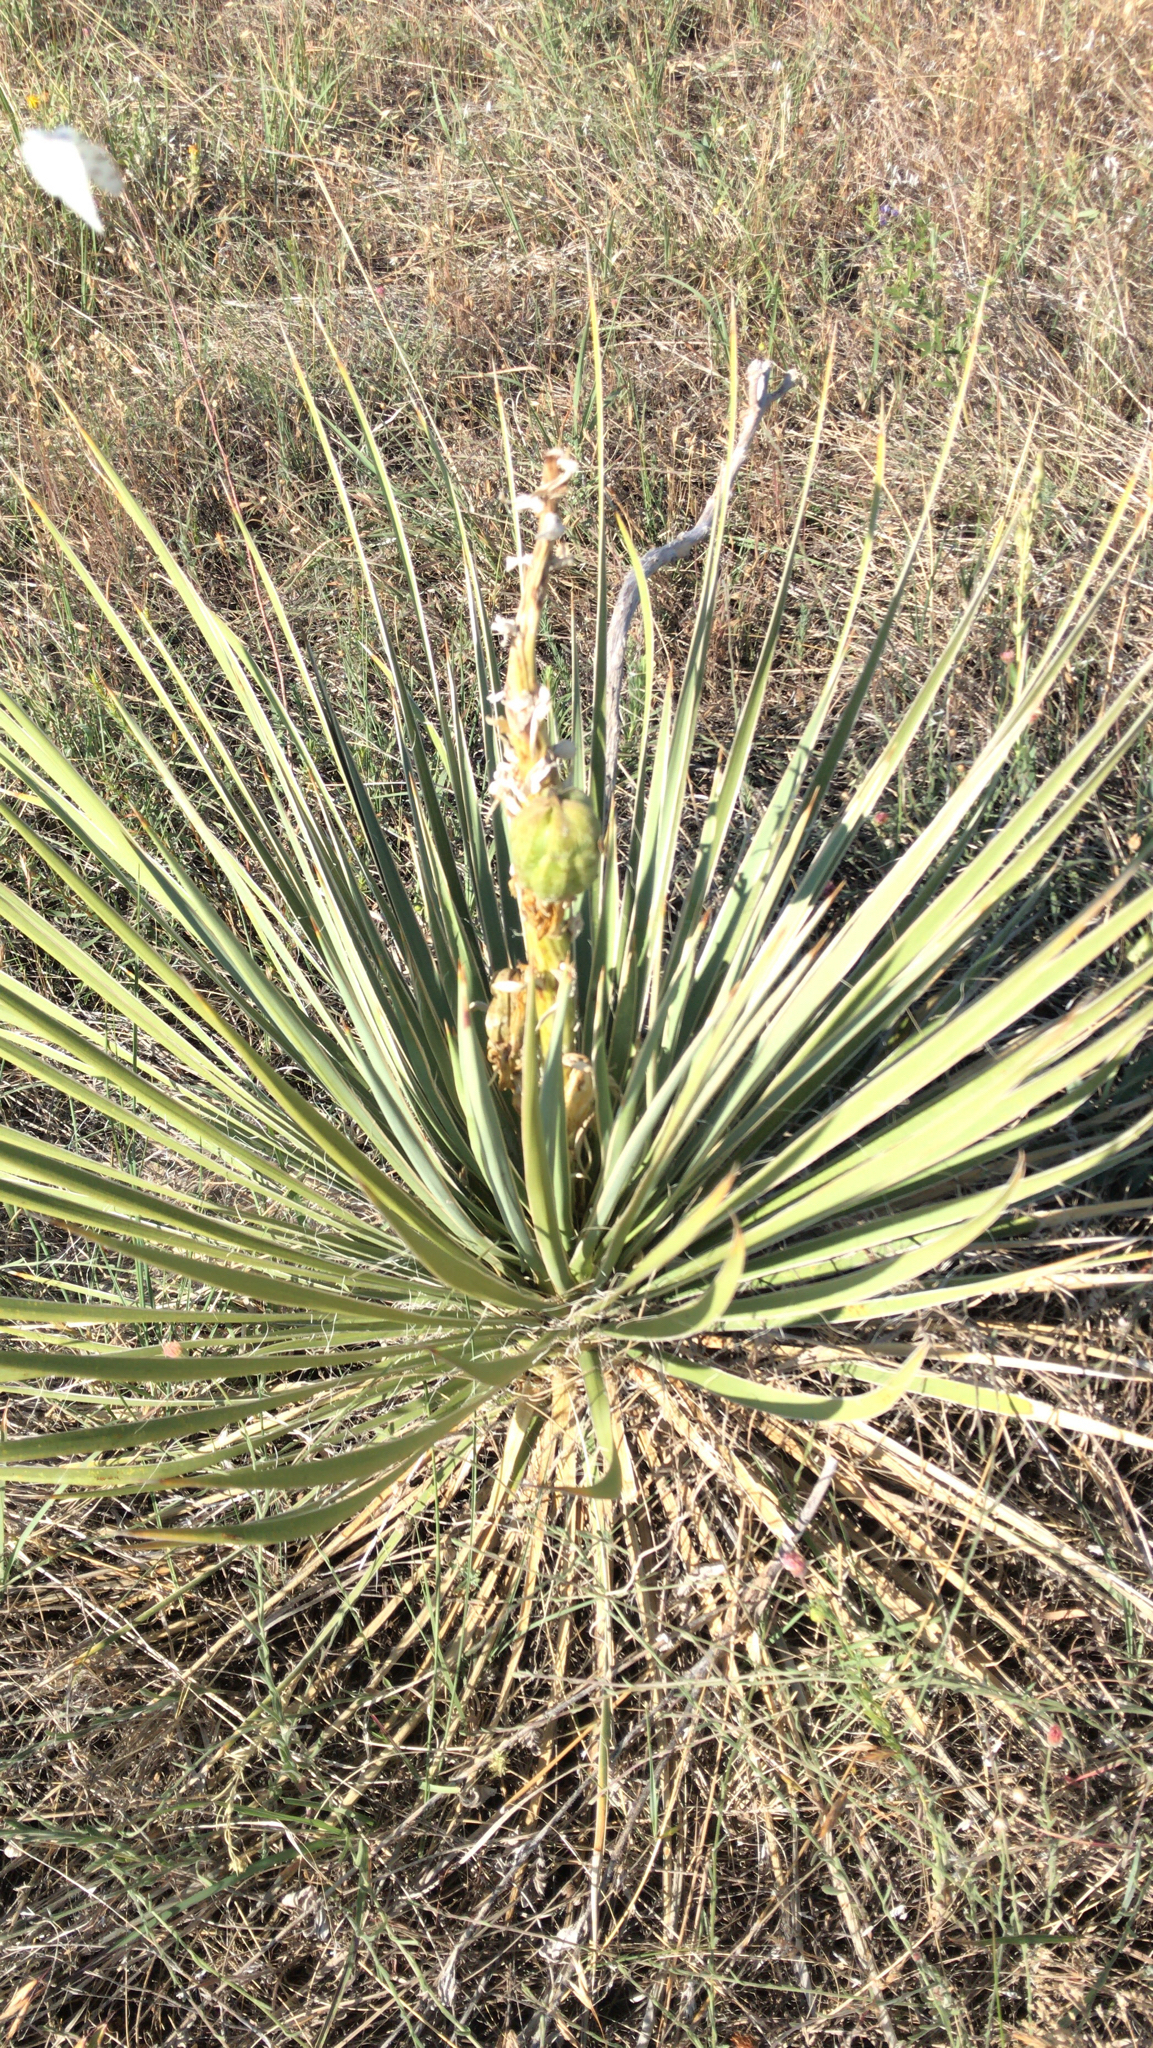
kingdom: Plantae
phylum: Tracheophyta
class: Liliopsida
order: Asparagales
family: Asparagaceae
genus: Yucca
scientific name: Yucca glauca
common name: Great plains yucca
